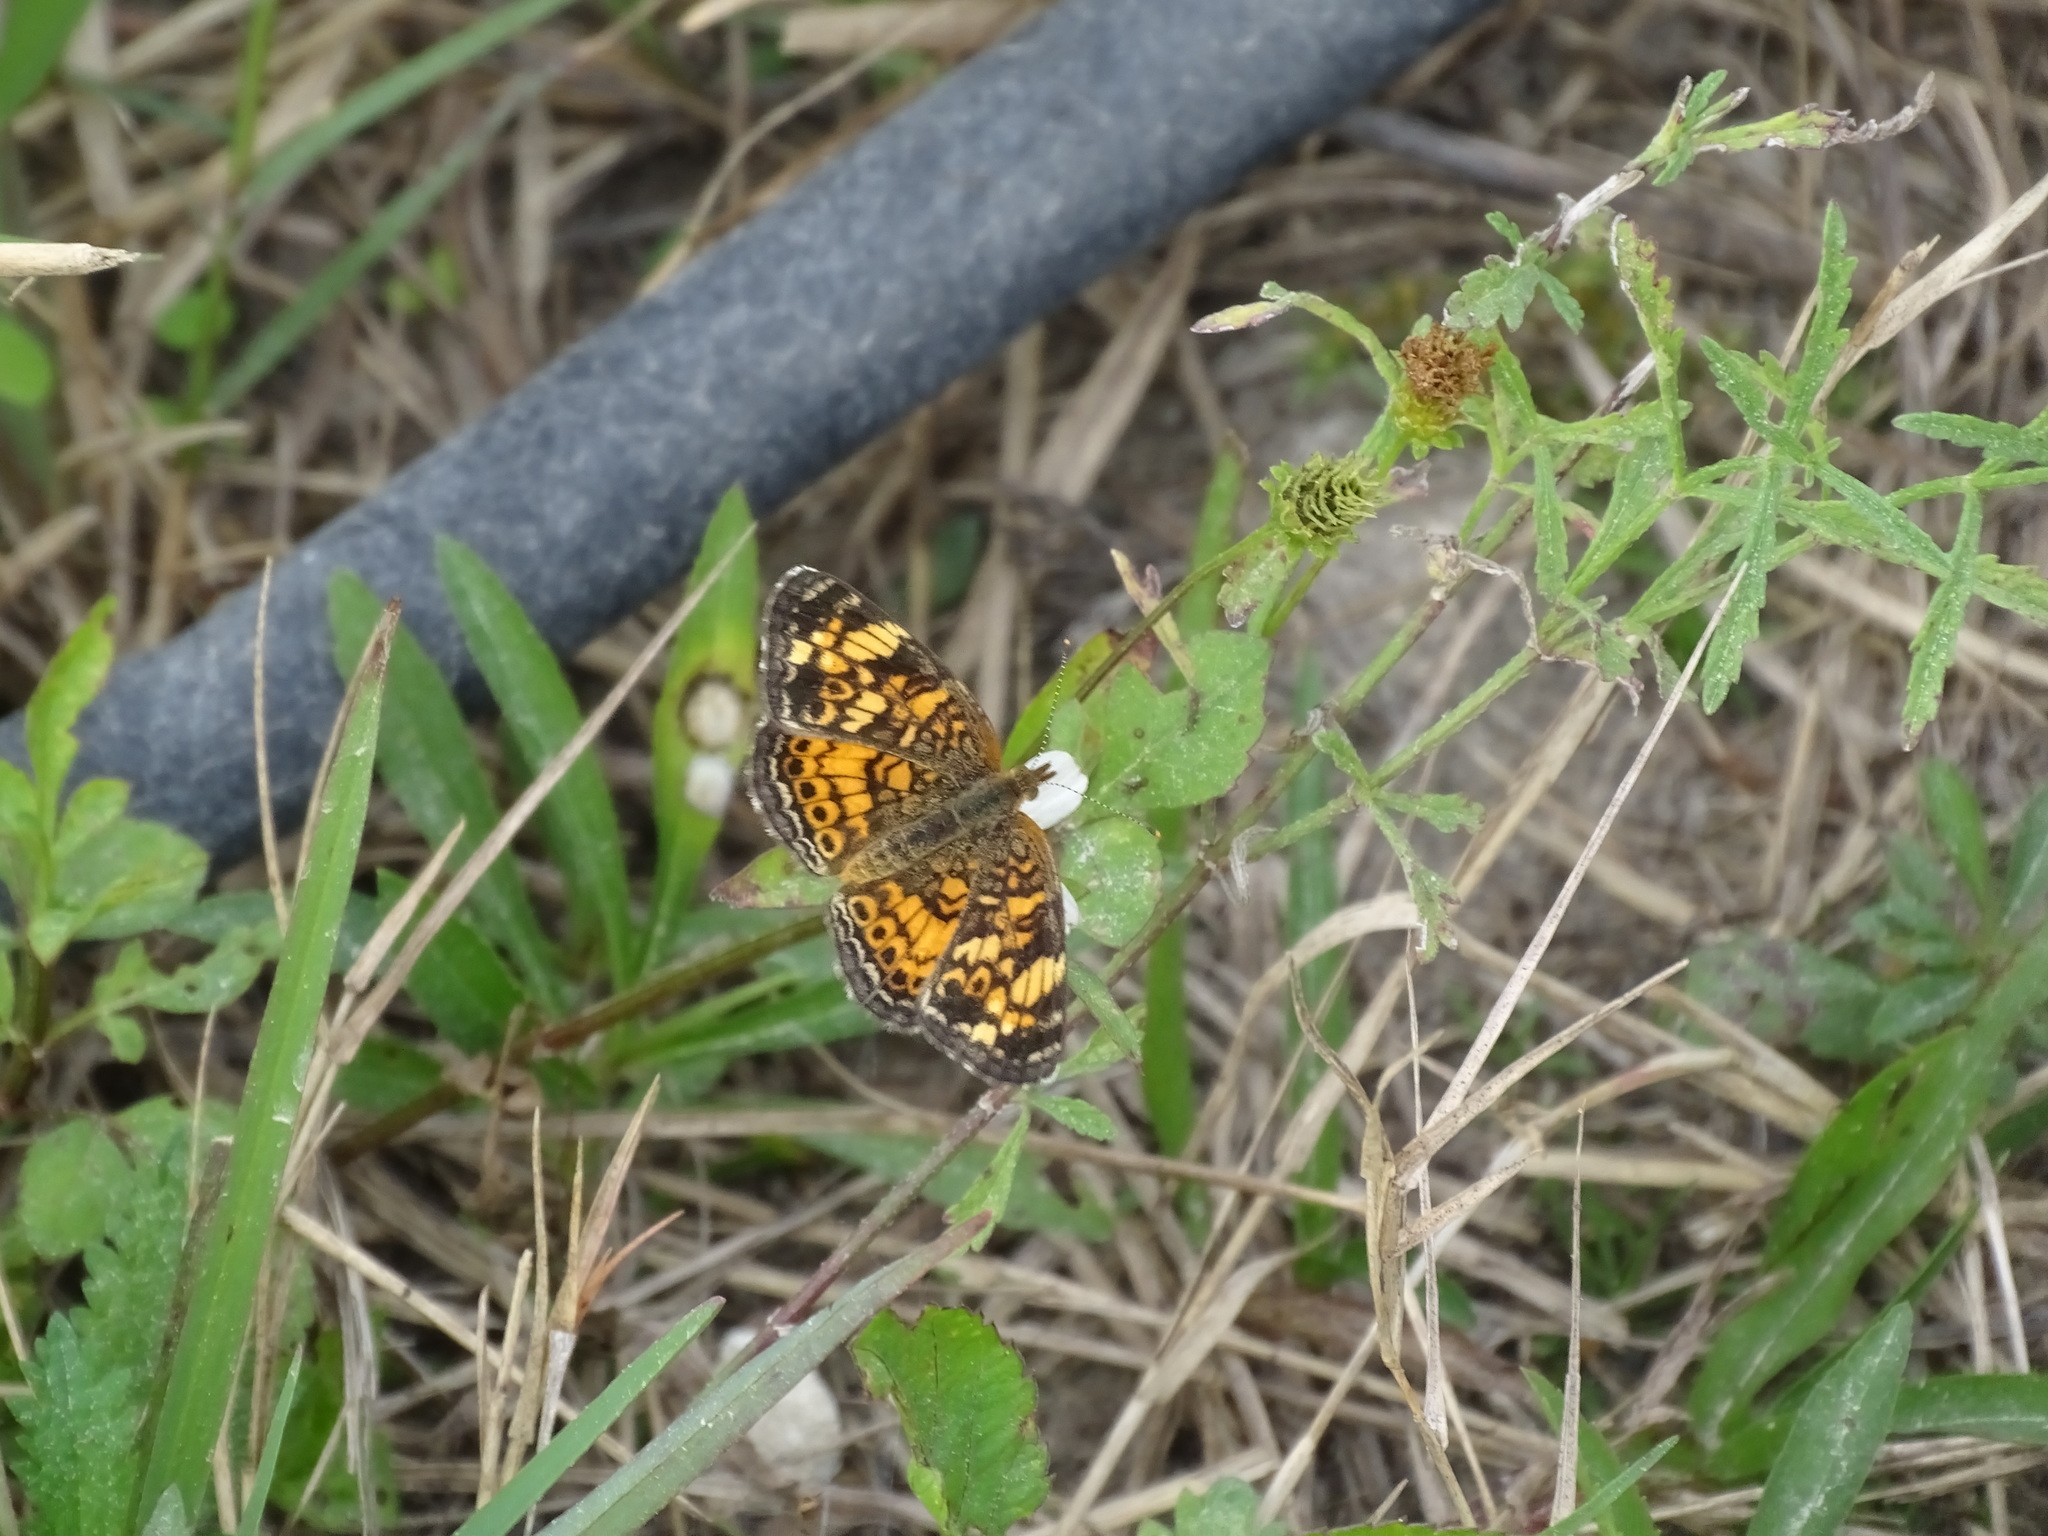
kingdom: Animalia
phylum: Arthropoda
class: Insecta
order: Lepidoptera
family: Nymphalidae
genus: Phyciodes
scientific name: Phyciodes tharos
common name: Pearl crescent
